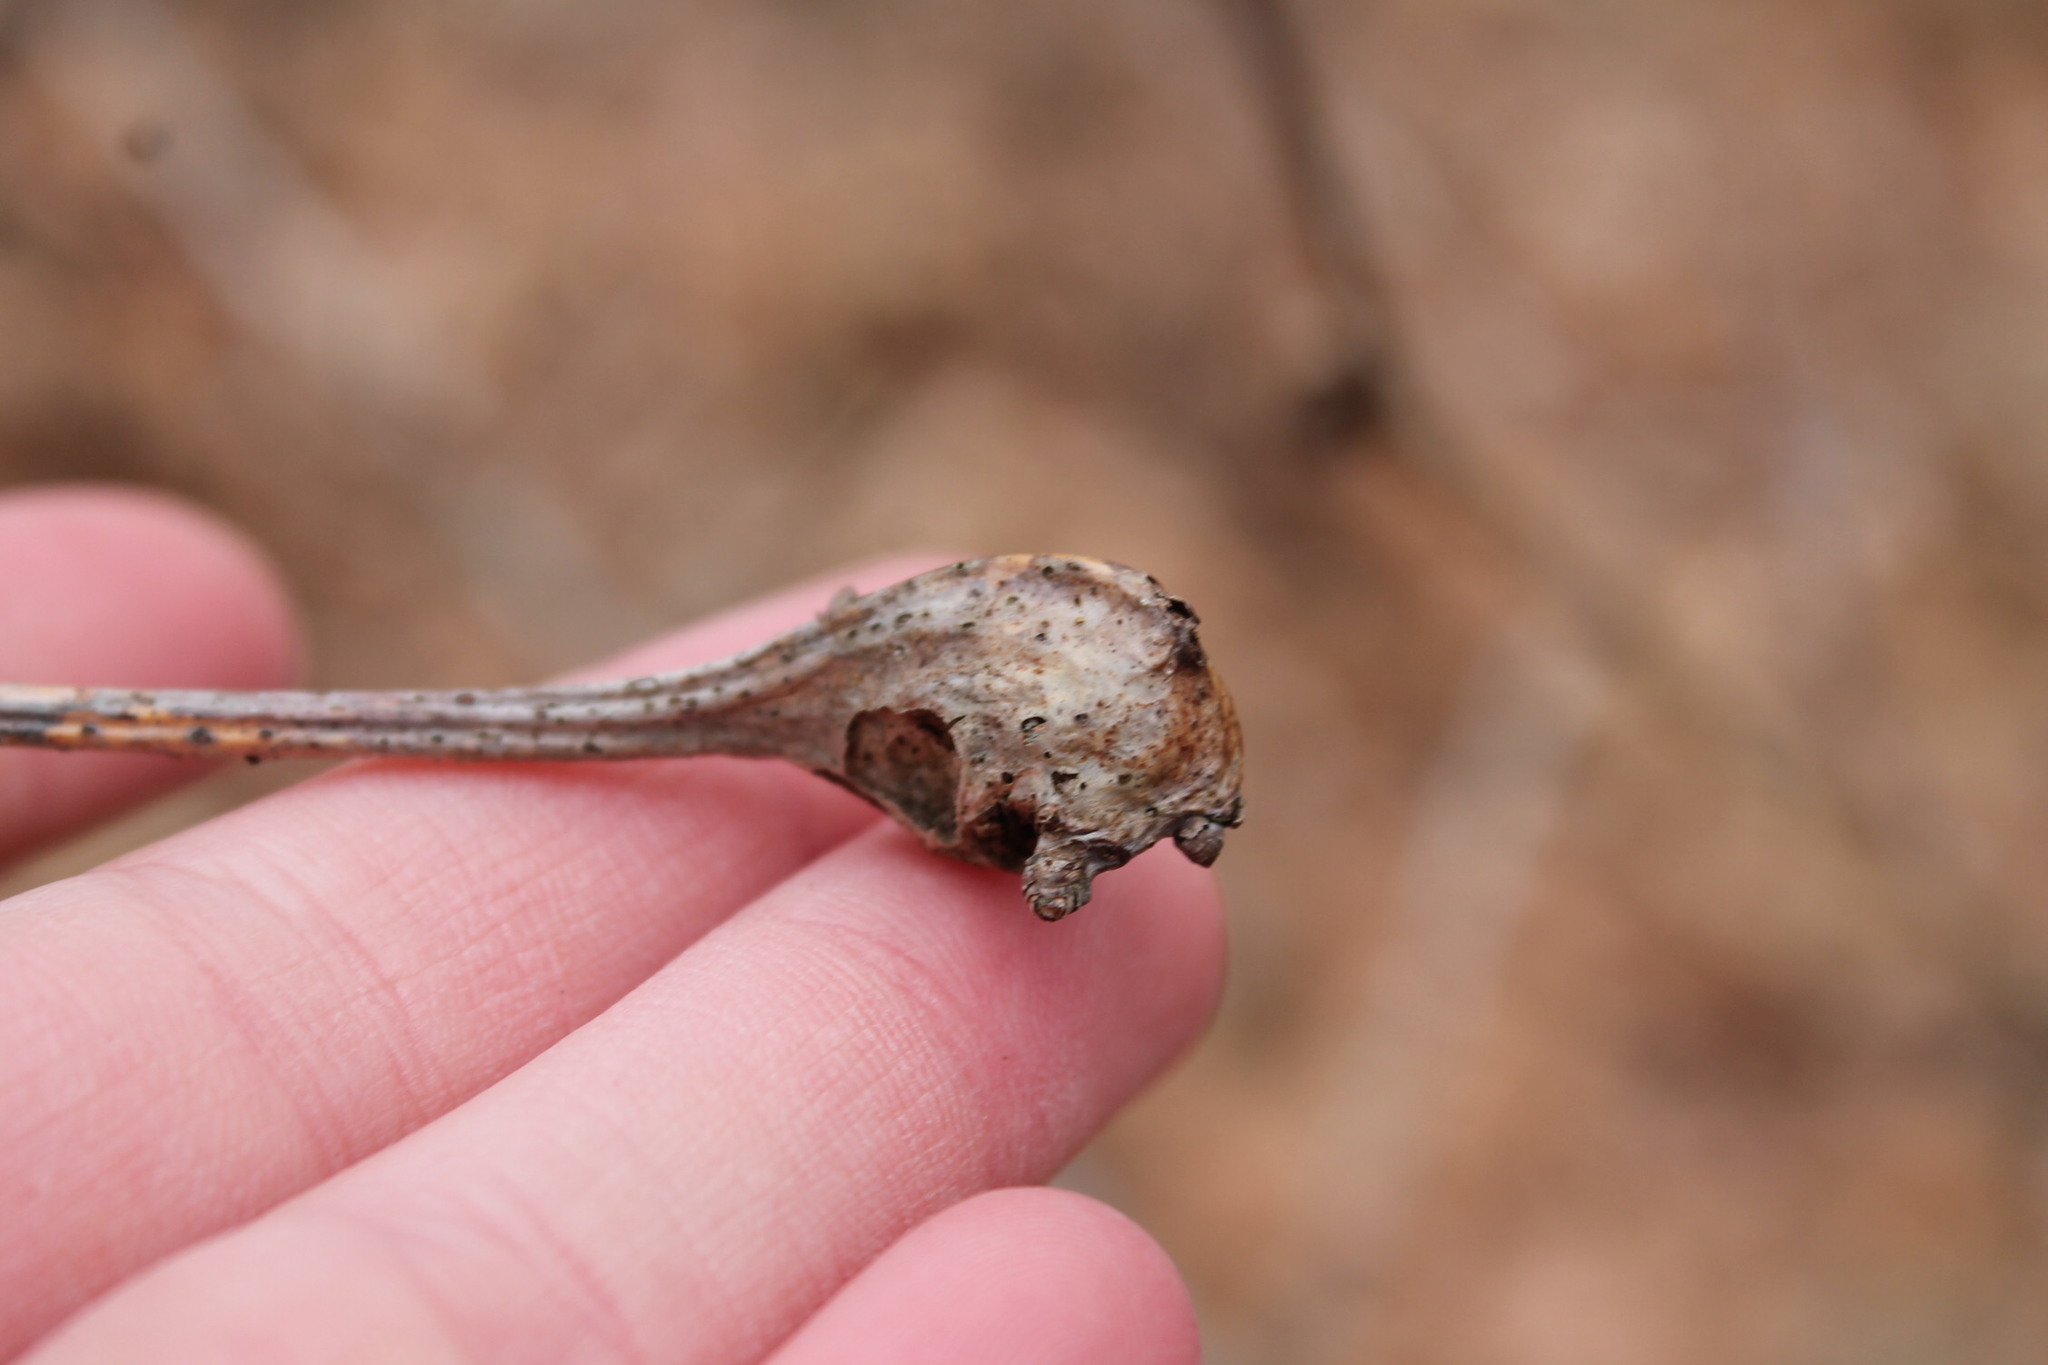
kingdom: Animalia
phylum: Arthropoda
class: Insecta
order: Hymenoptera
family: Cynipidae
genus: Callirhytis
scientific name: Callirhytis clavula
